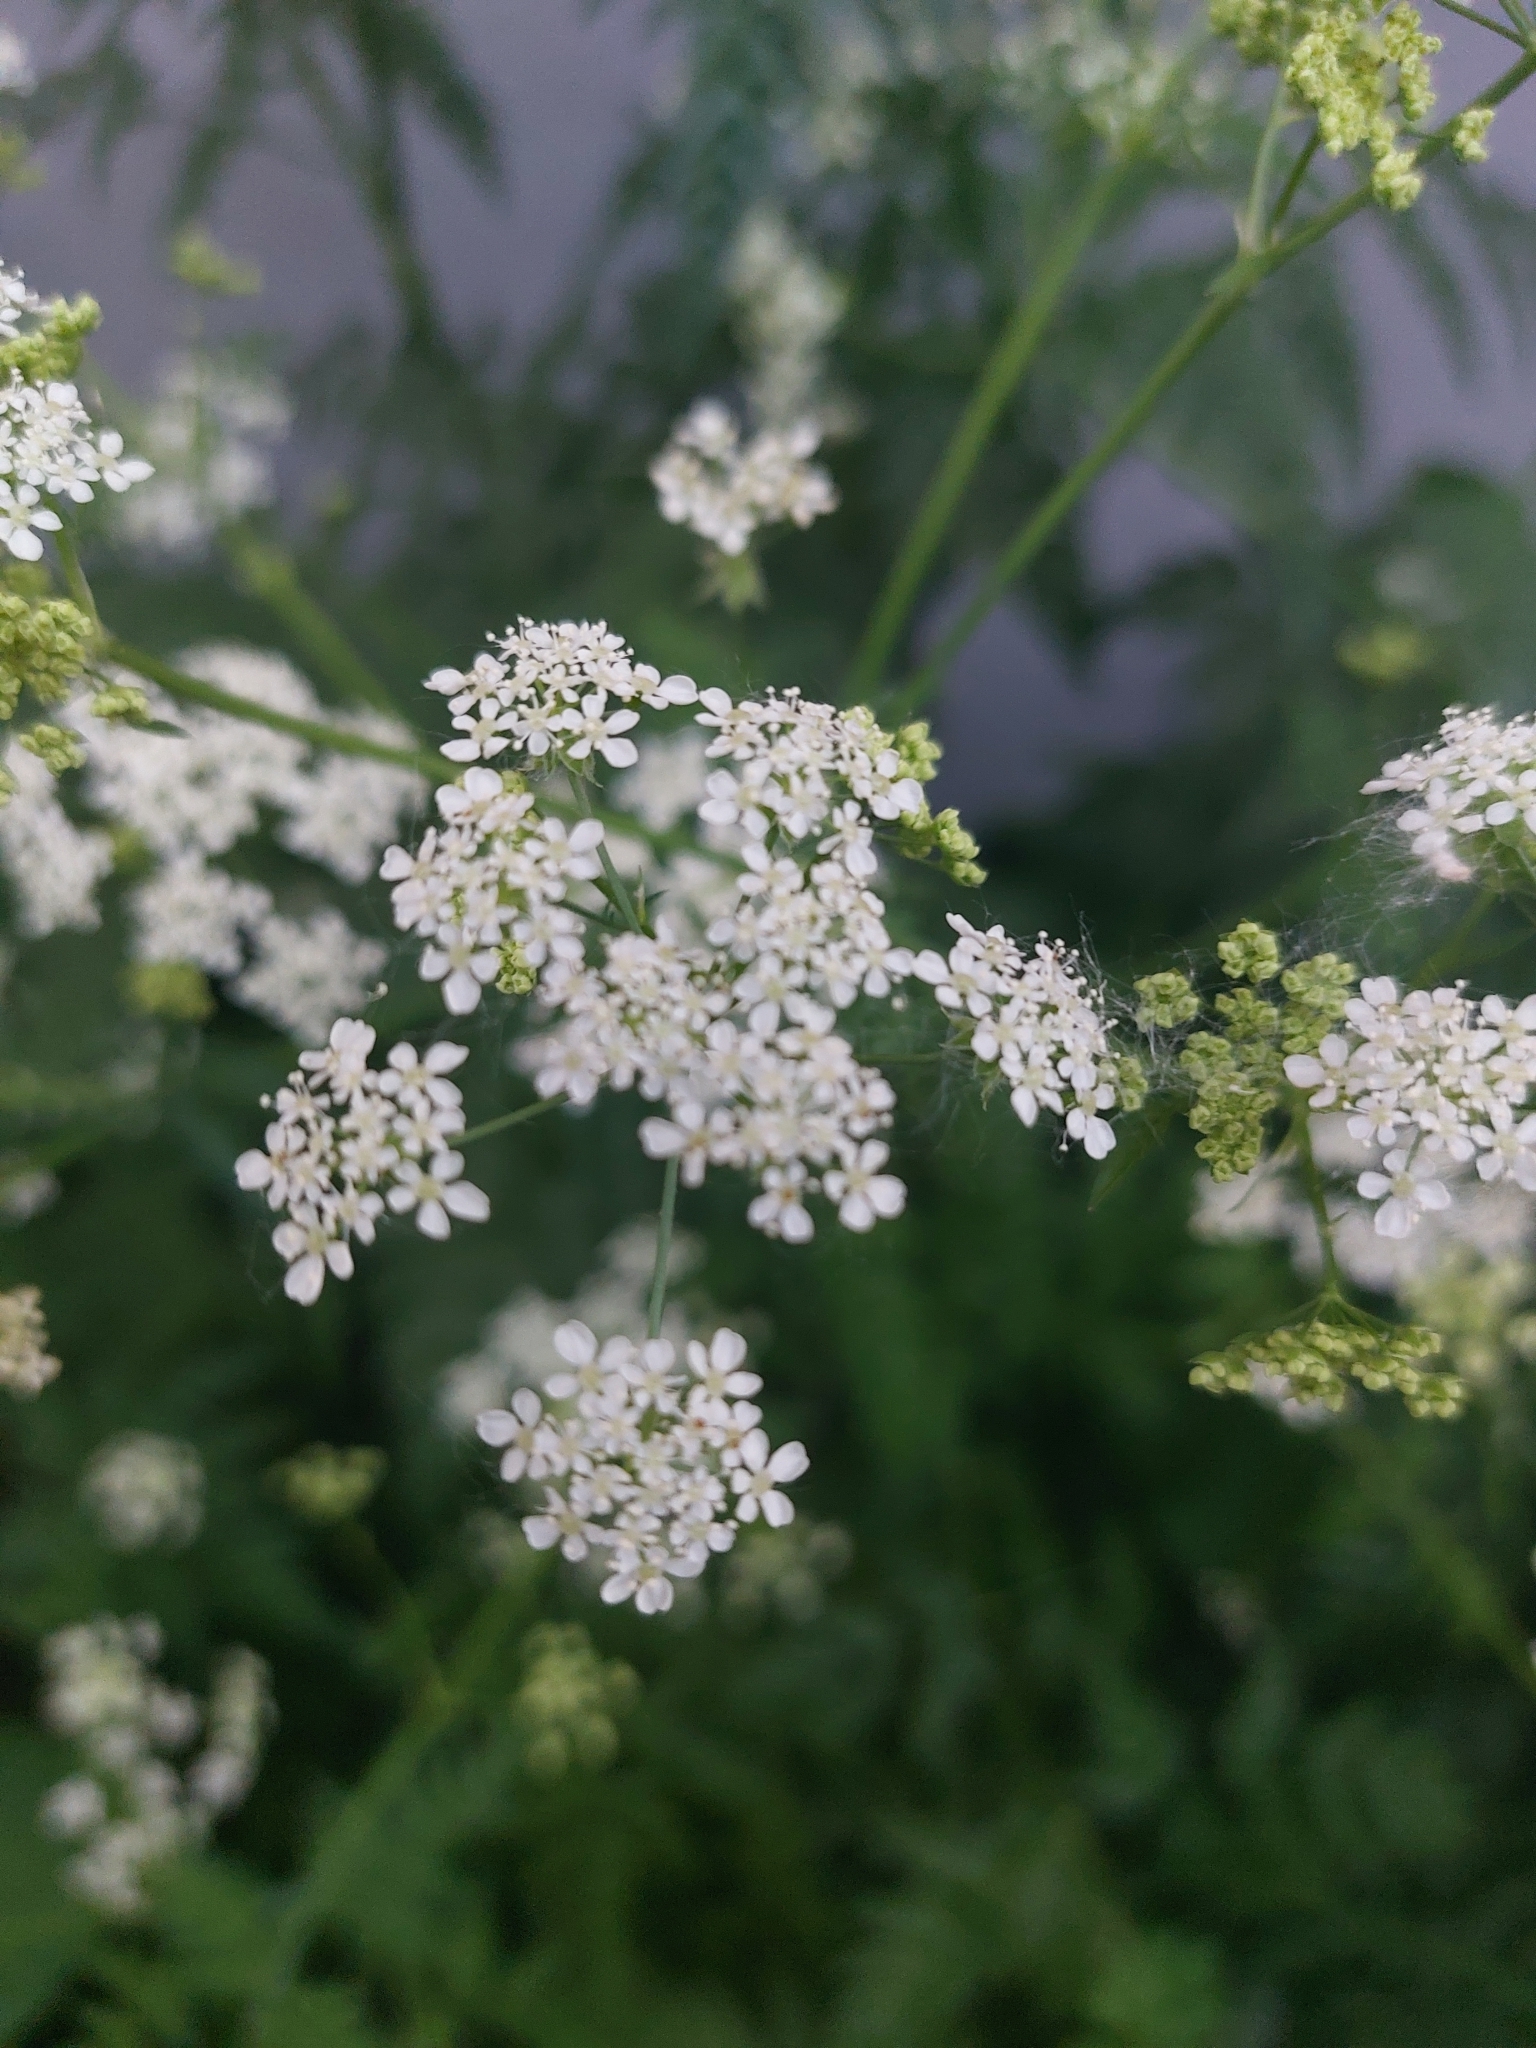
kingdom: Plantae
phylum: Tracheophyta
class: Magnoliopsida
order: Apiales
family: Apiaceae
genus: Anthriscus
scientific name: Anthriscus sylvestris
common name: Cow parsley
